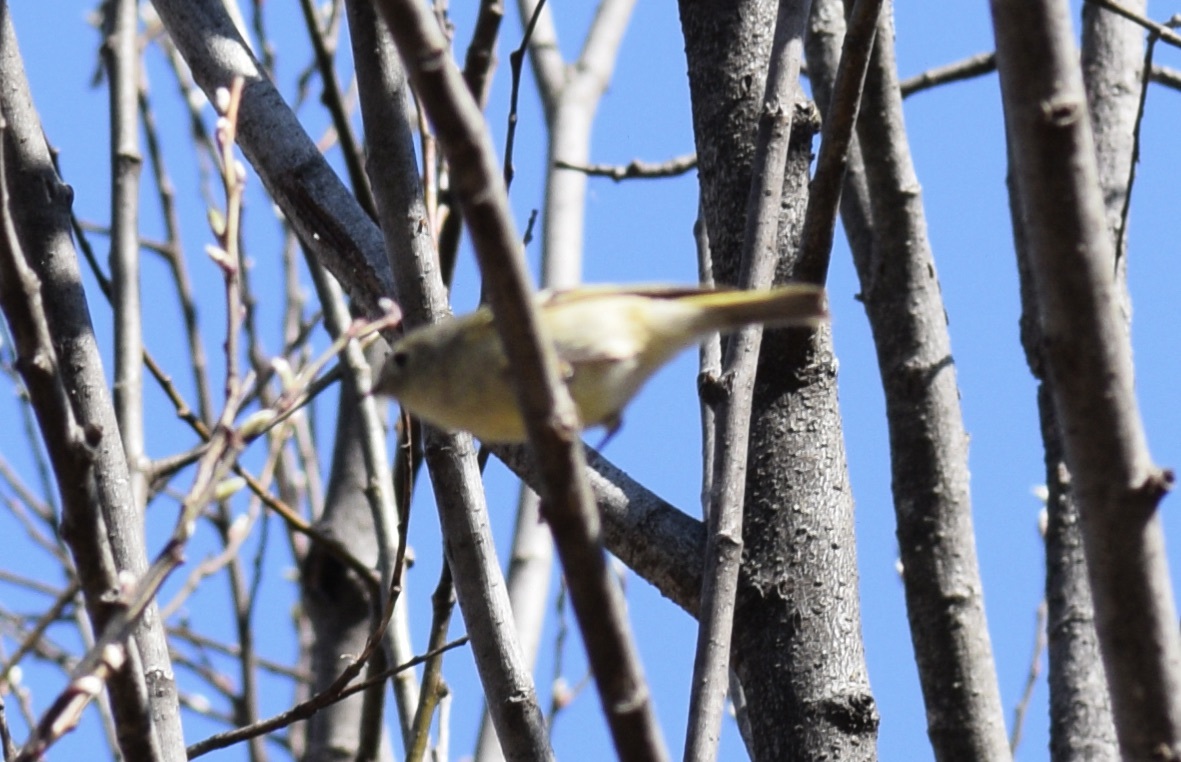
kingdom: Animalia
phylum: Chordata
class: Aves
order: Passeriformes
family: Regulidae
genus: Regulus
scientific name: Regulus calendula
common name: Ruby-crowned kinglet
